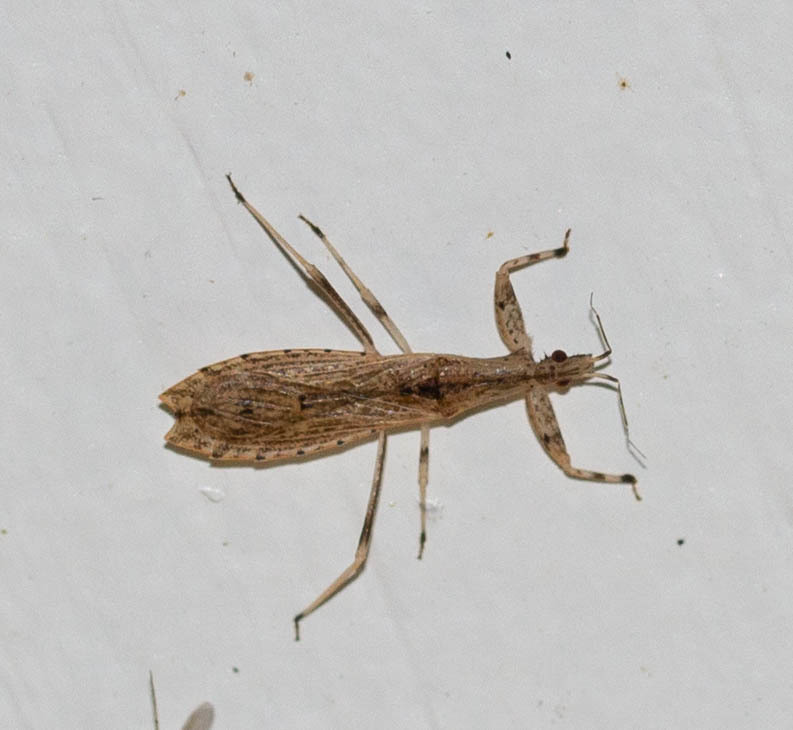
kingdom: Animalia
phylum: Arthropoda
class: Insecta
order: Hemiptera
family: Reduviidae
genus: Ctenotrachelus
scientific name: Ctenotrachelus shermani
